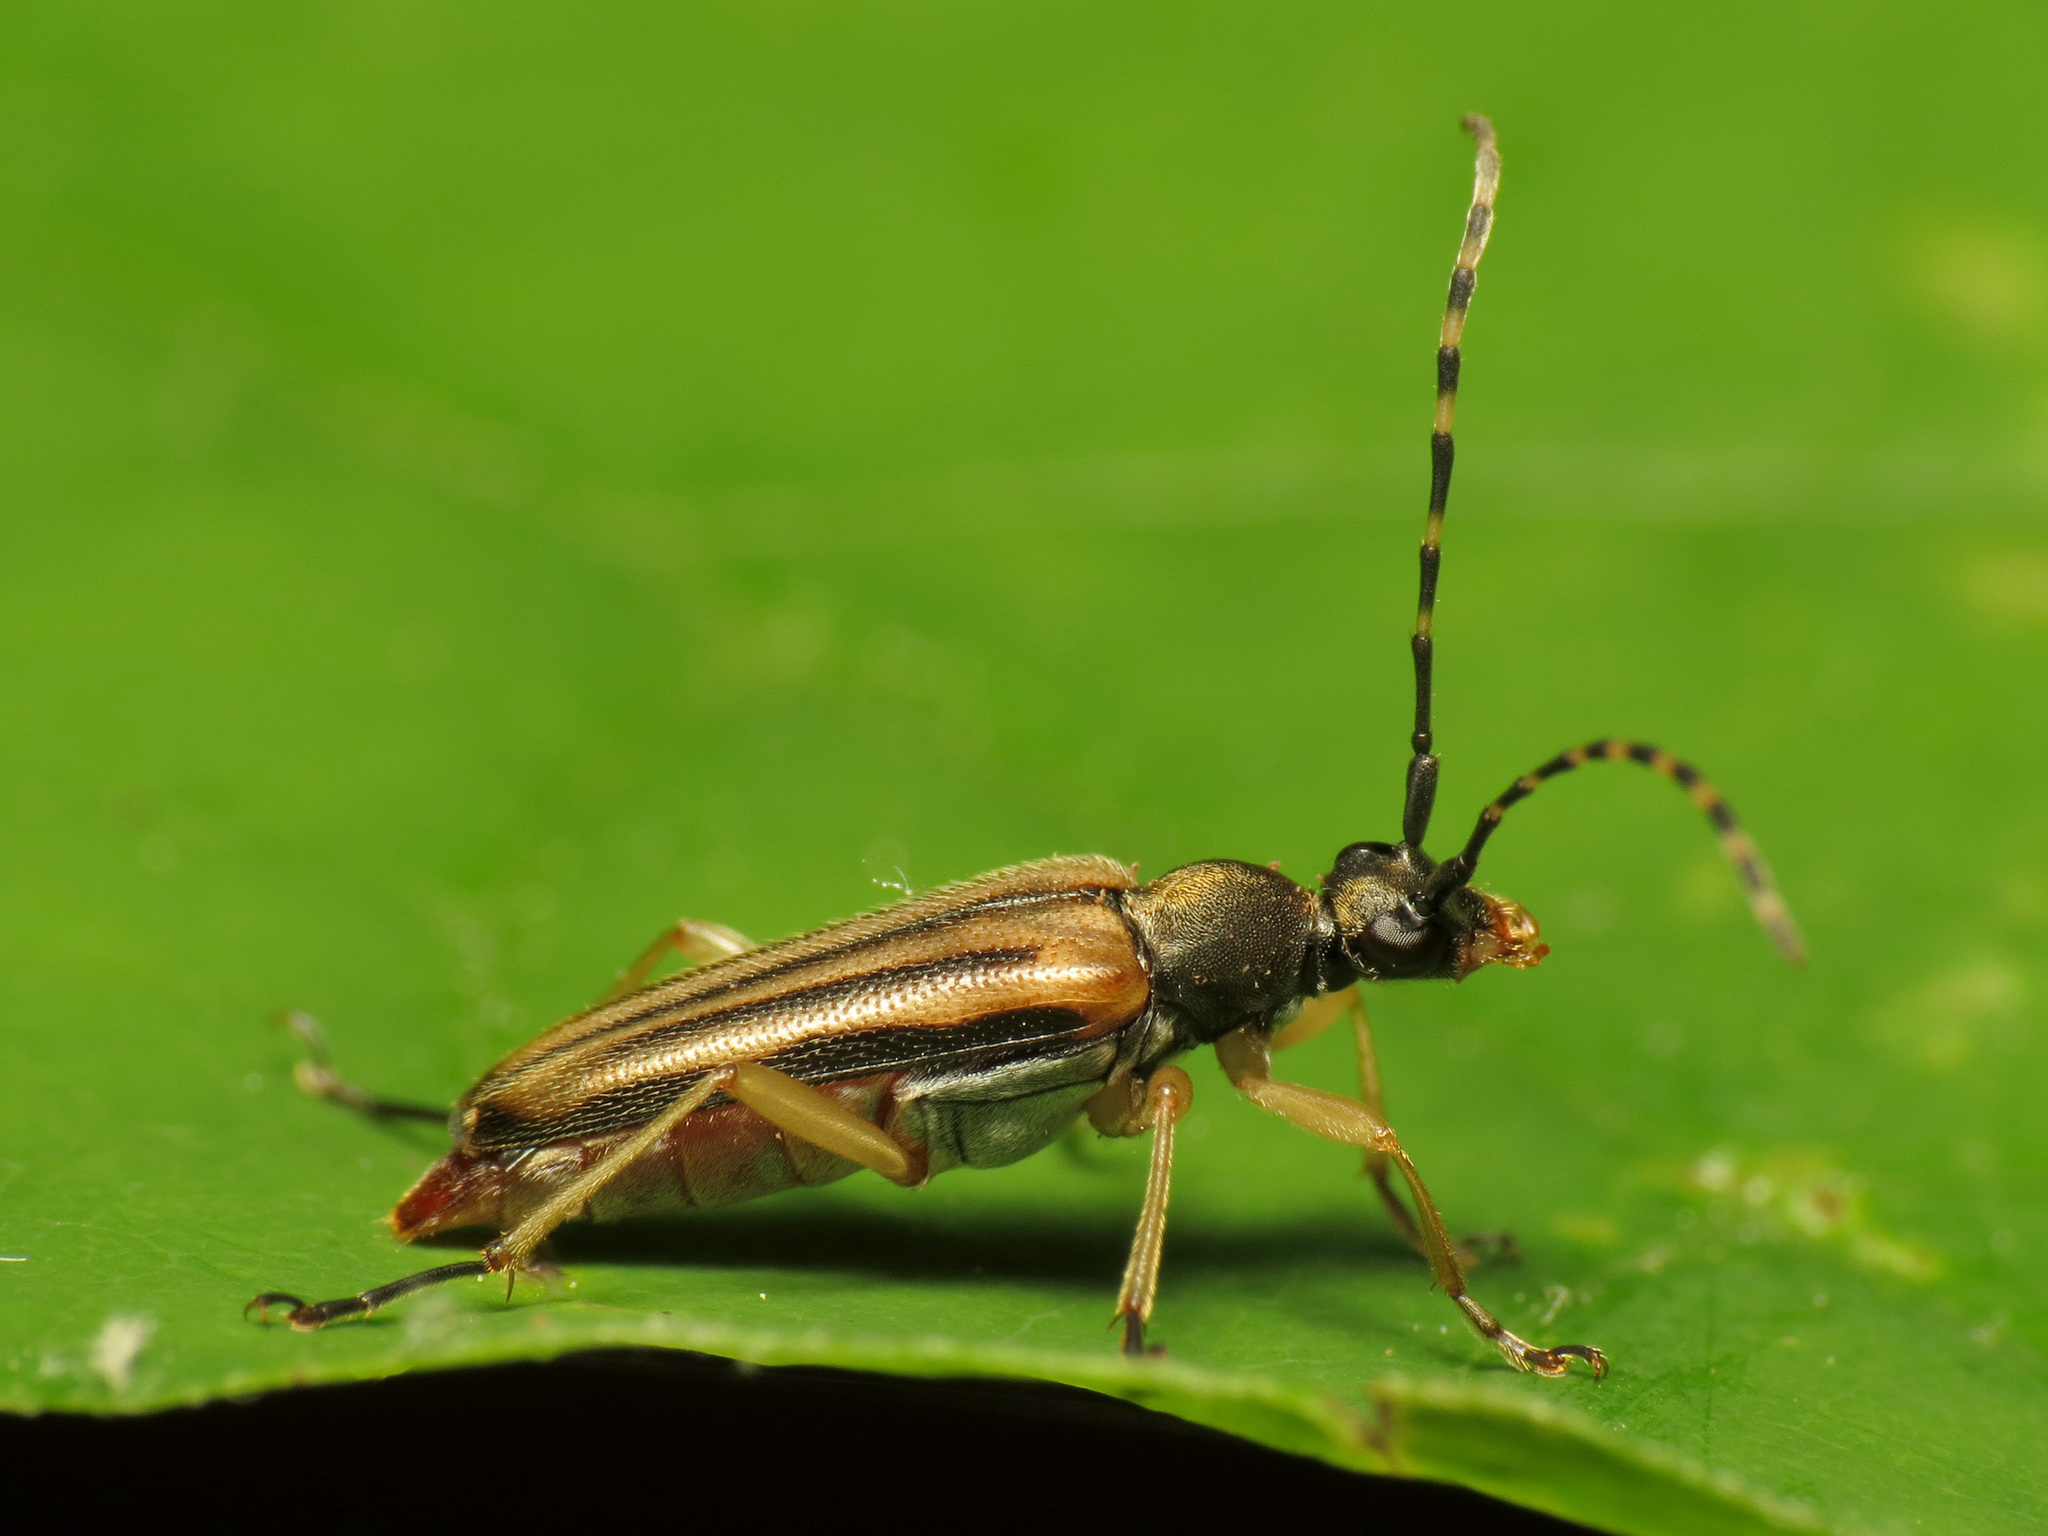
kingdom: Animalia
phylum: Arthropoda
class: Insecta
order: Coleoptera
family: Cerambycidae
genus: Analeptura
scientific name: Analeptura lineola
